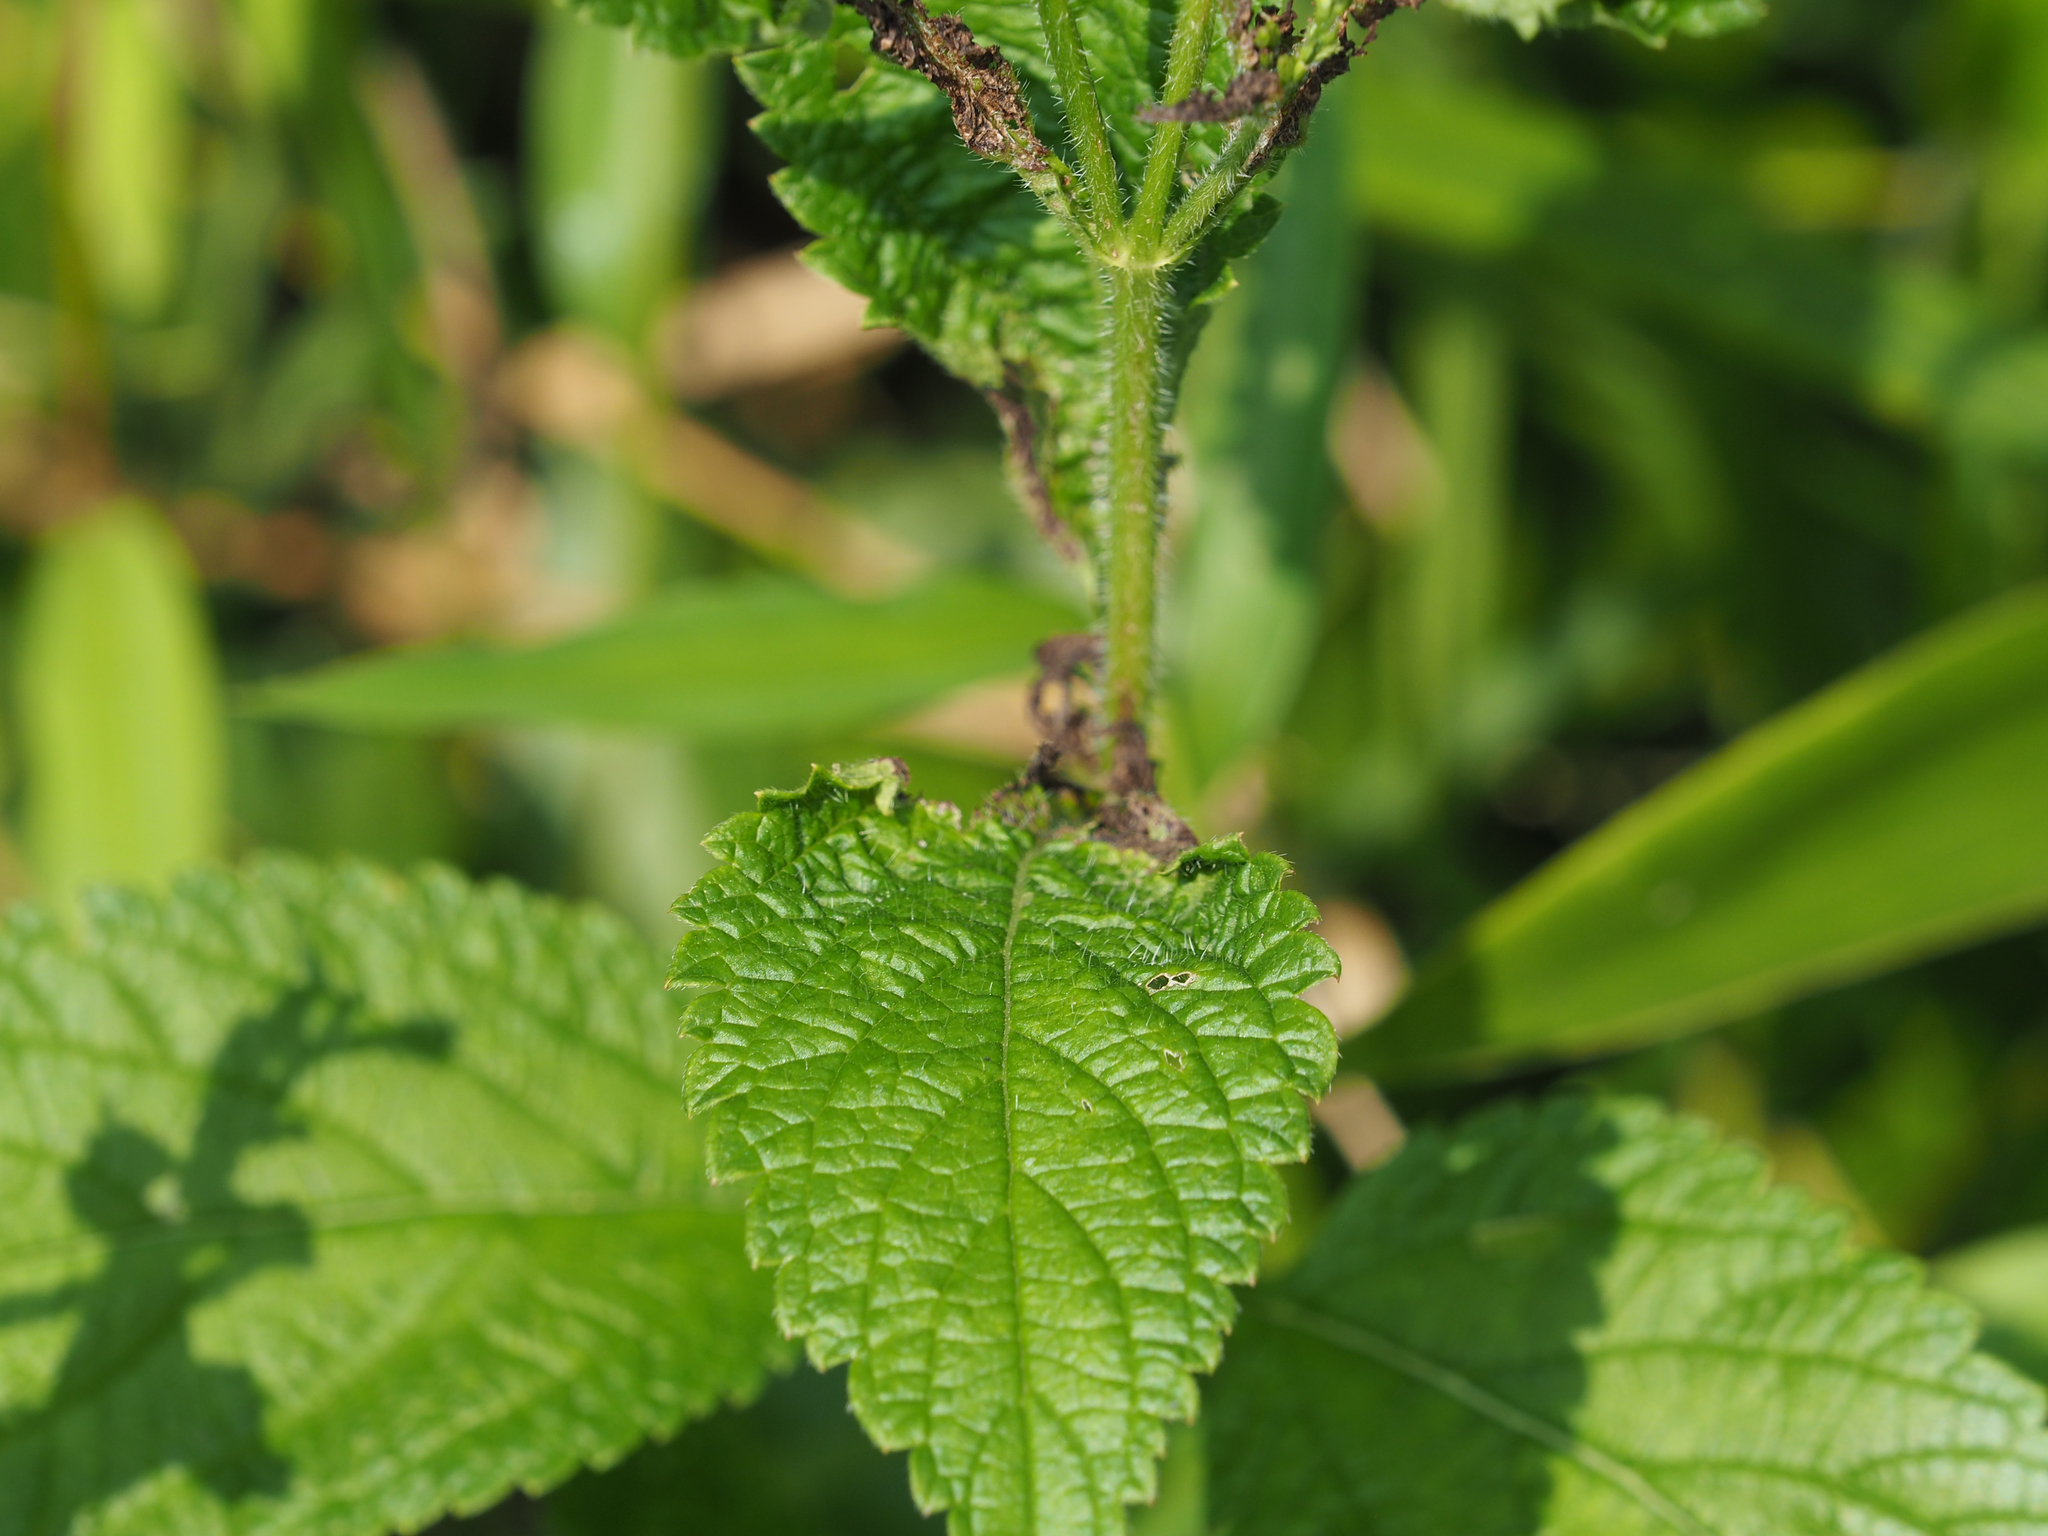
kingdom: Plantae
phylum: Tracheophyta
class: Magnoliopsida
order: Lamiales
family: Verbenaceae
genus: Verbena
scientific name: Verbena urticifolia
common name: Nettle-leaved vervain
